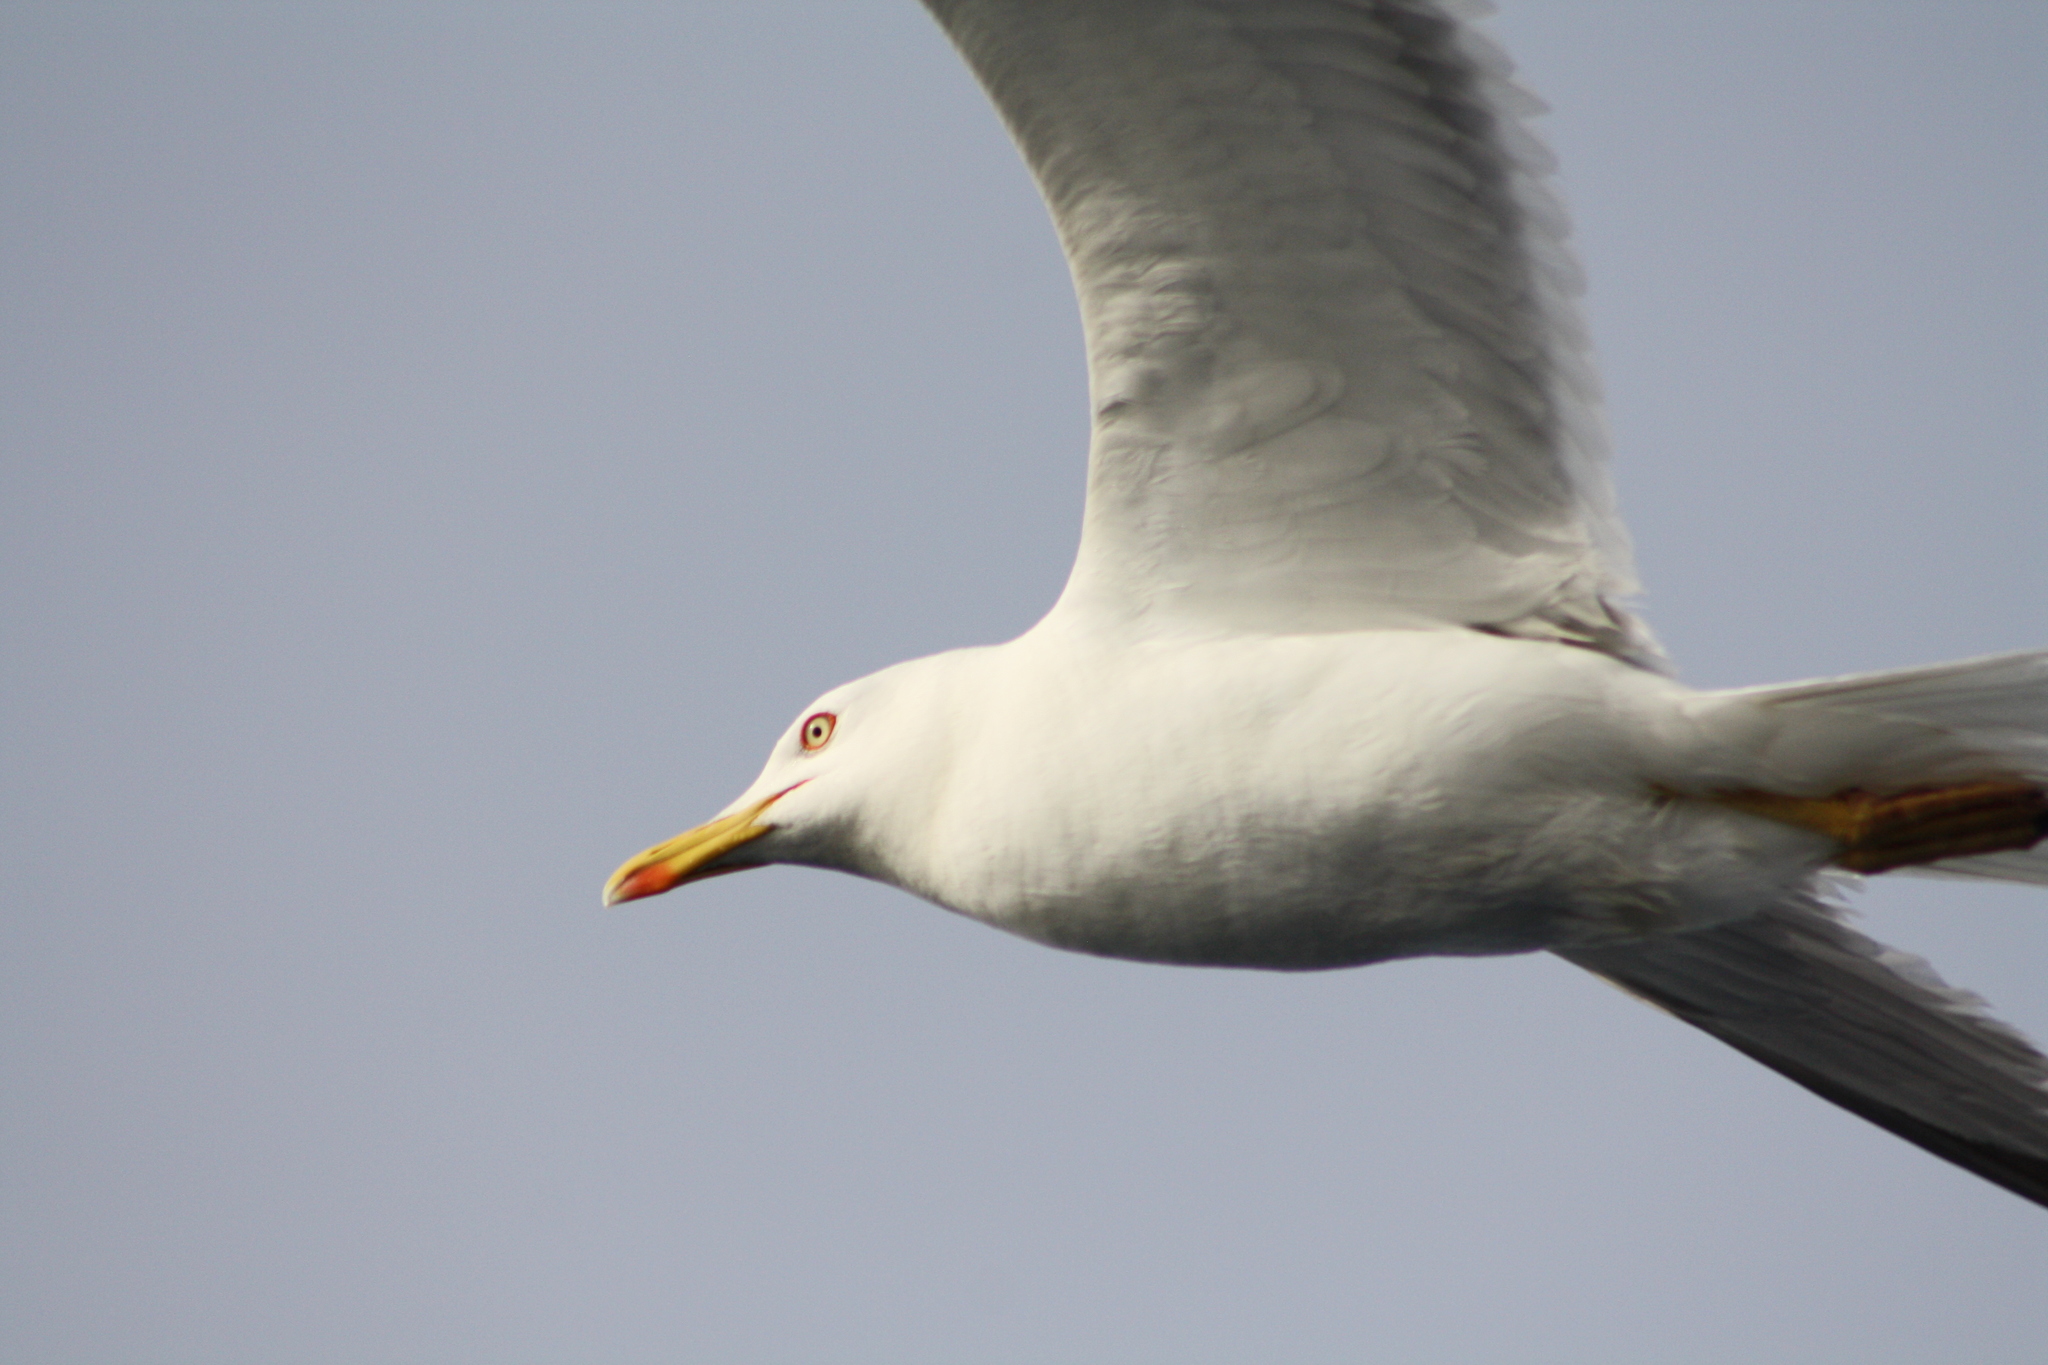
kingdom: Animalia
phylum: Chordata
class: Aves
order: Charadriiformes
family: Laridae
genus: Larus
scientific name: Larus michahellis
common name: Yellow-legged gull
